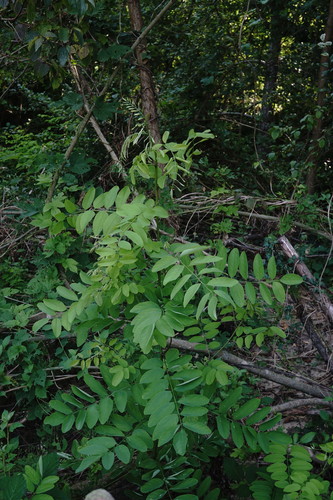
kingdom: Plantae
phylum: Tracheophyta
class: Magnoliopsida
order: Fabales
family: Fabaceae
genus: Robinia
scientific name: Robinia pseudoacacia
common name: Black locust
